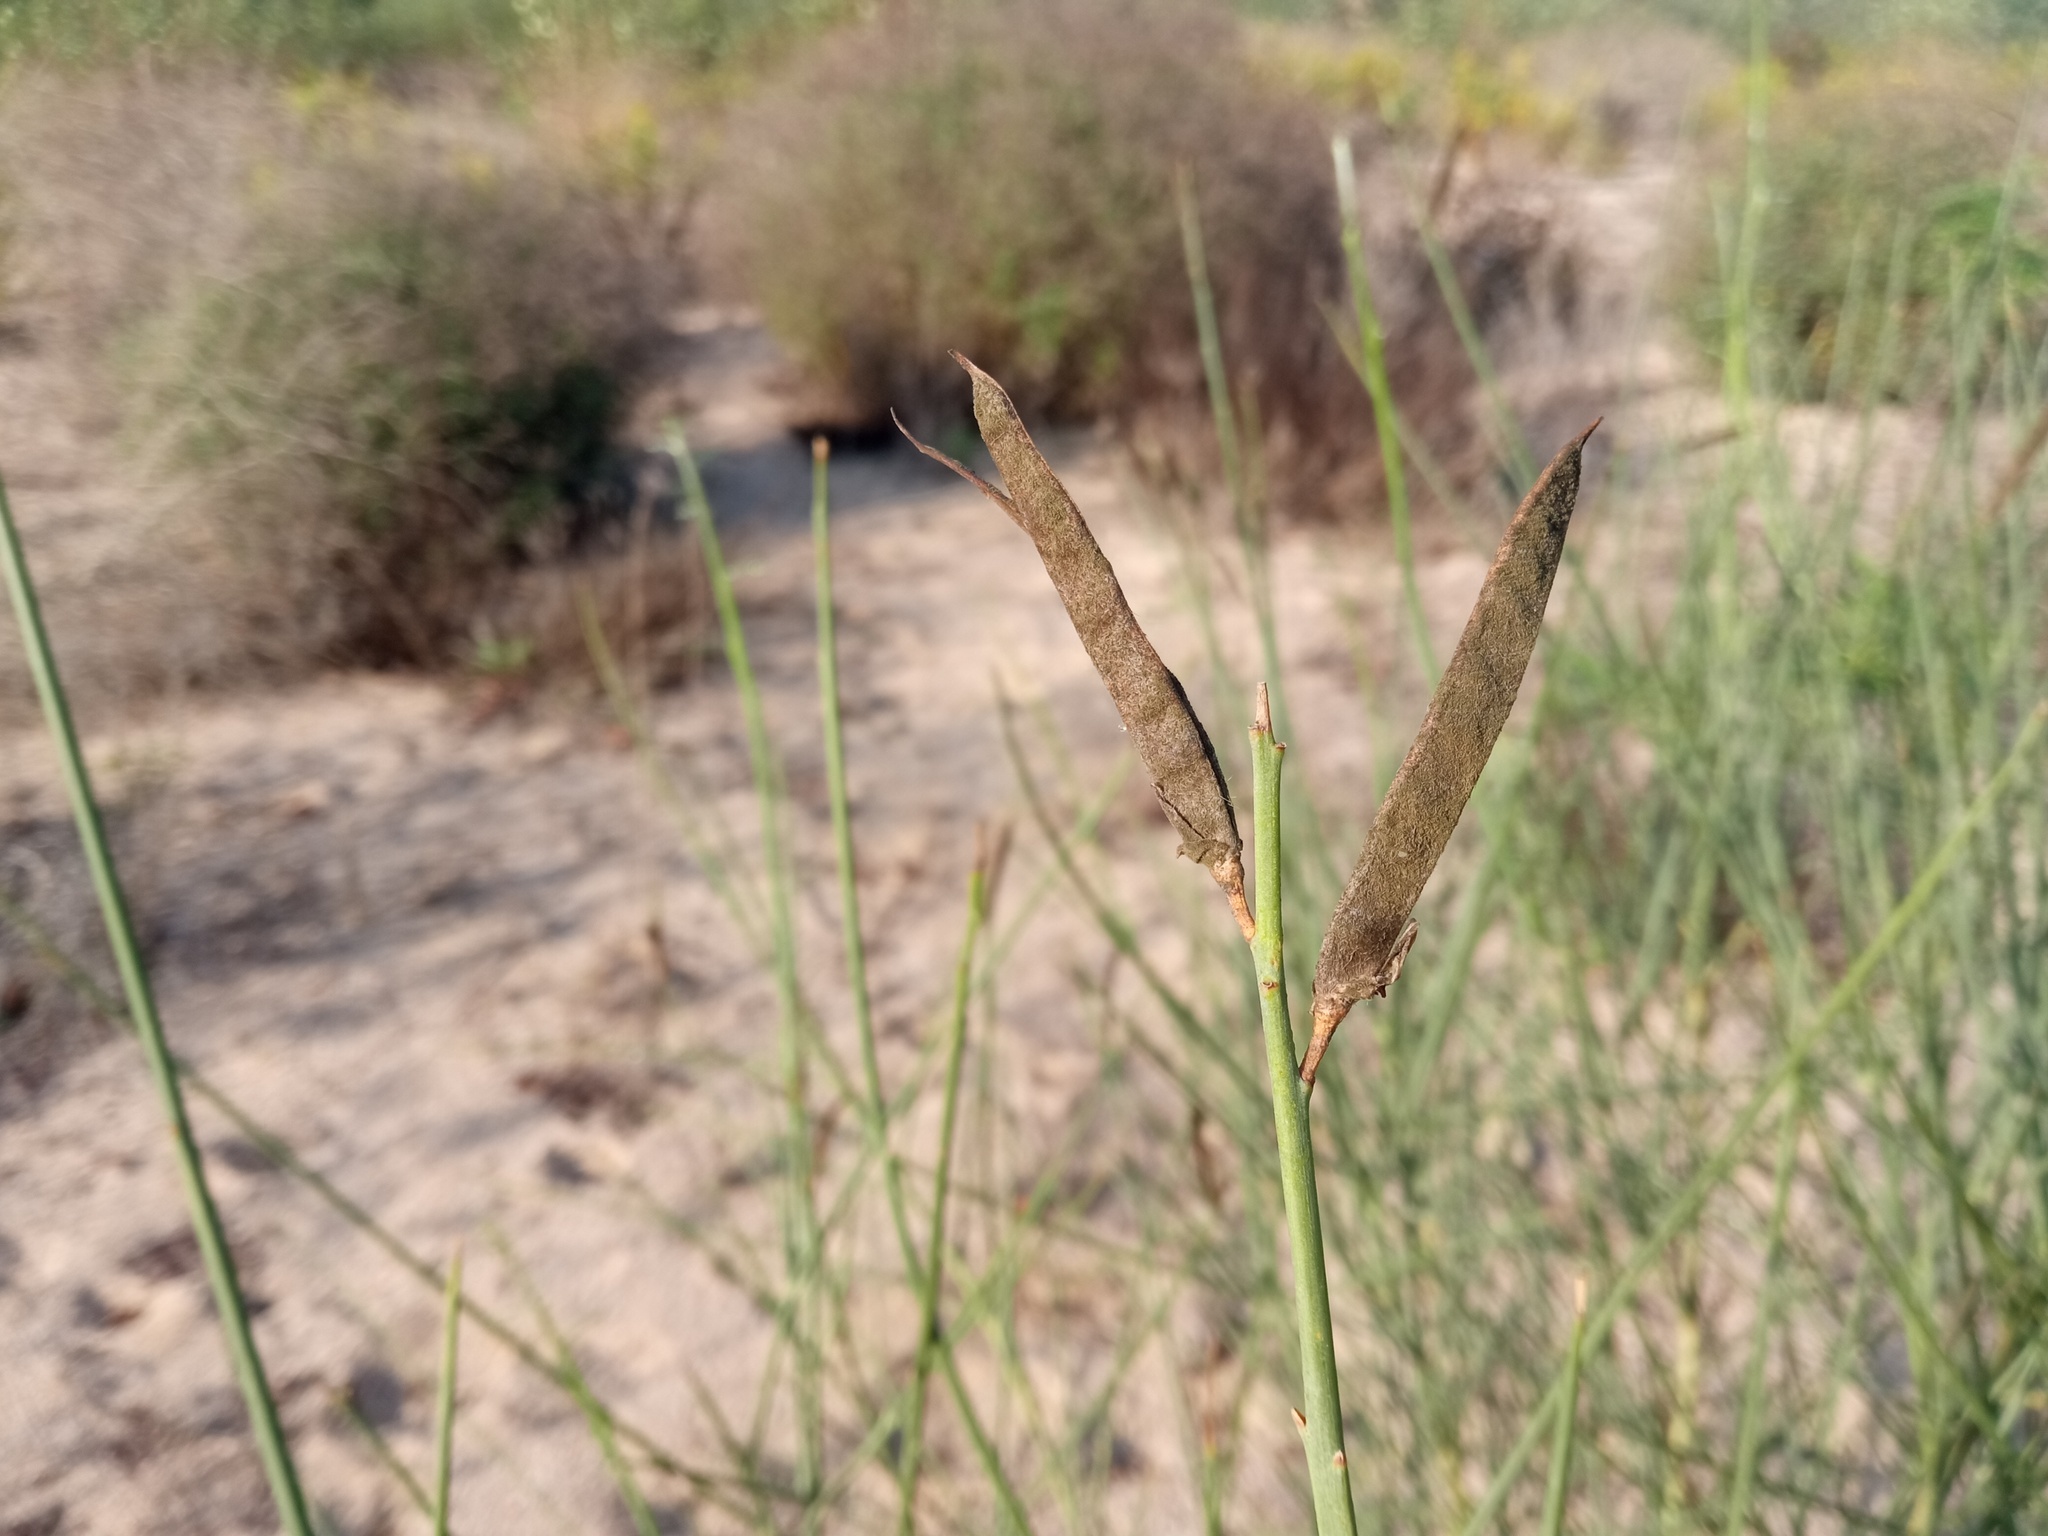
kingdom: Plantae
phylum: Tracheophyta
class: Magnoliopsida
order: Fabales
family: Fabaceae
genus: Spartium
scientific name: Spartium junceum
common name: Spanish broom
